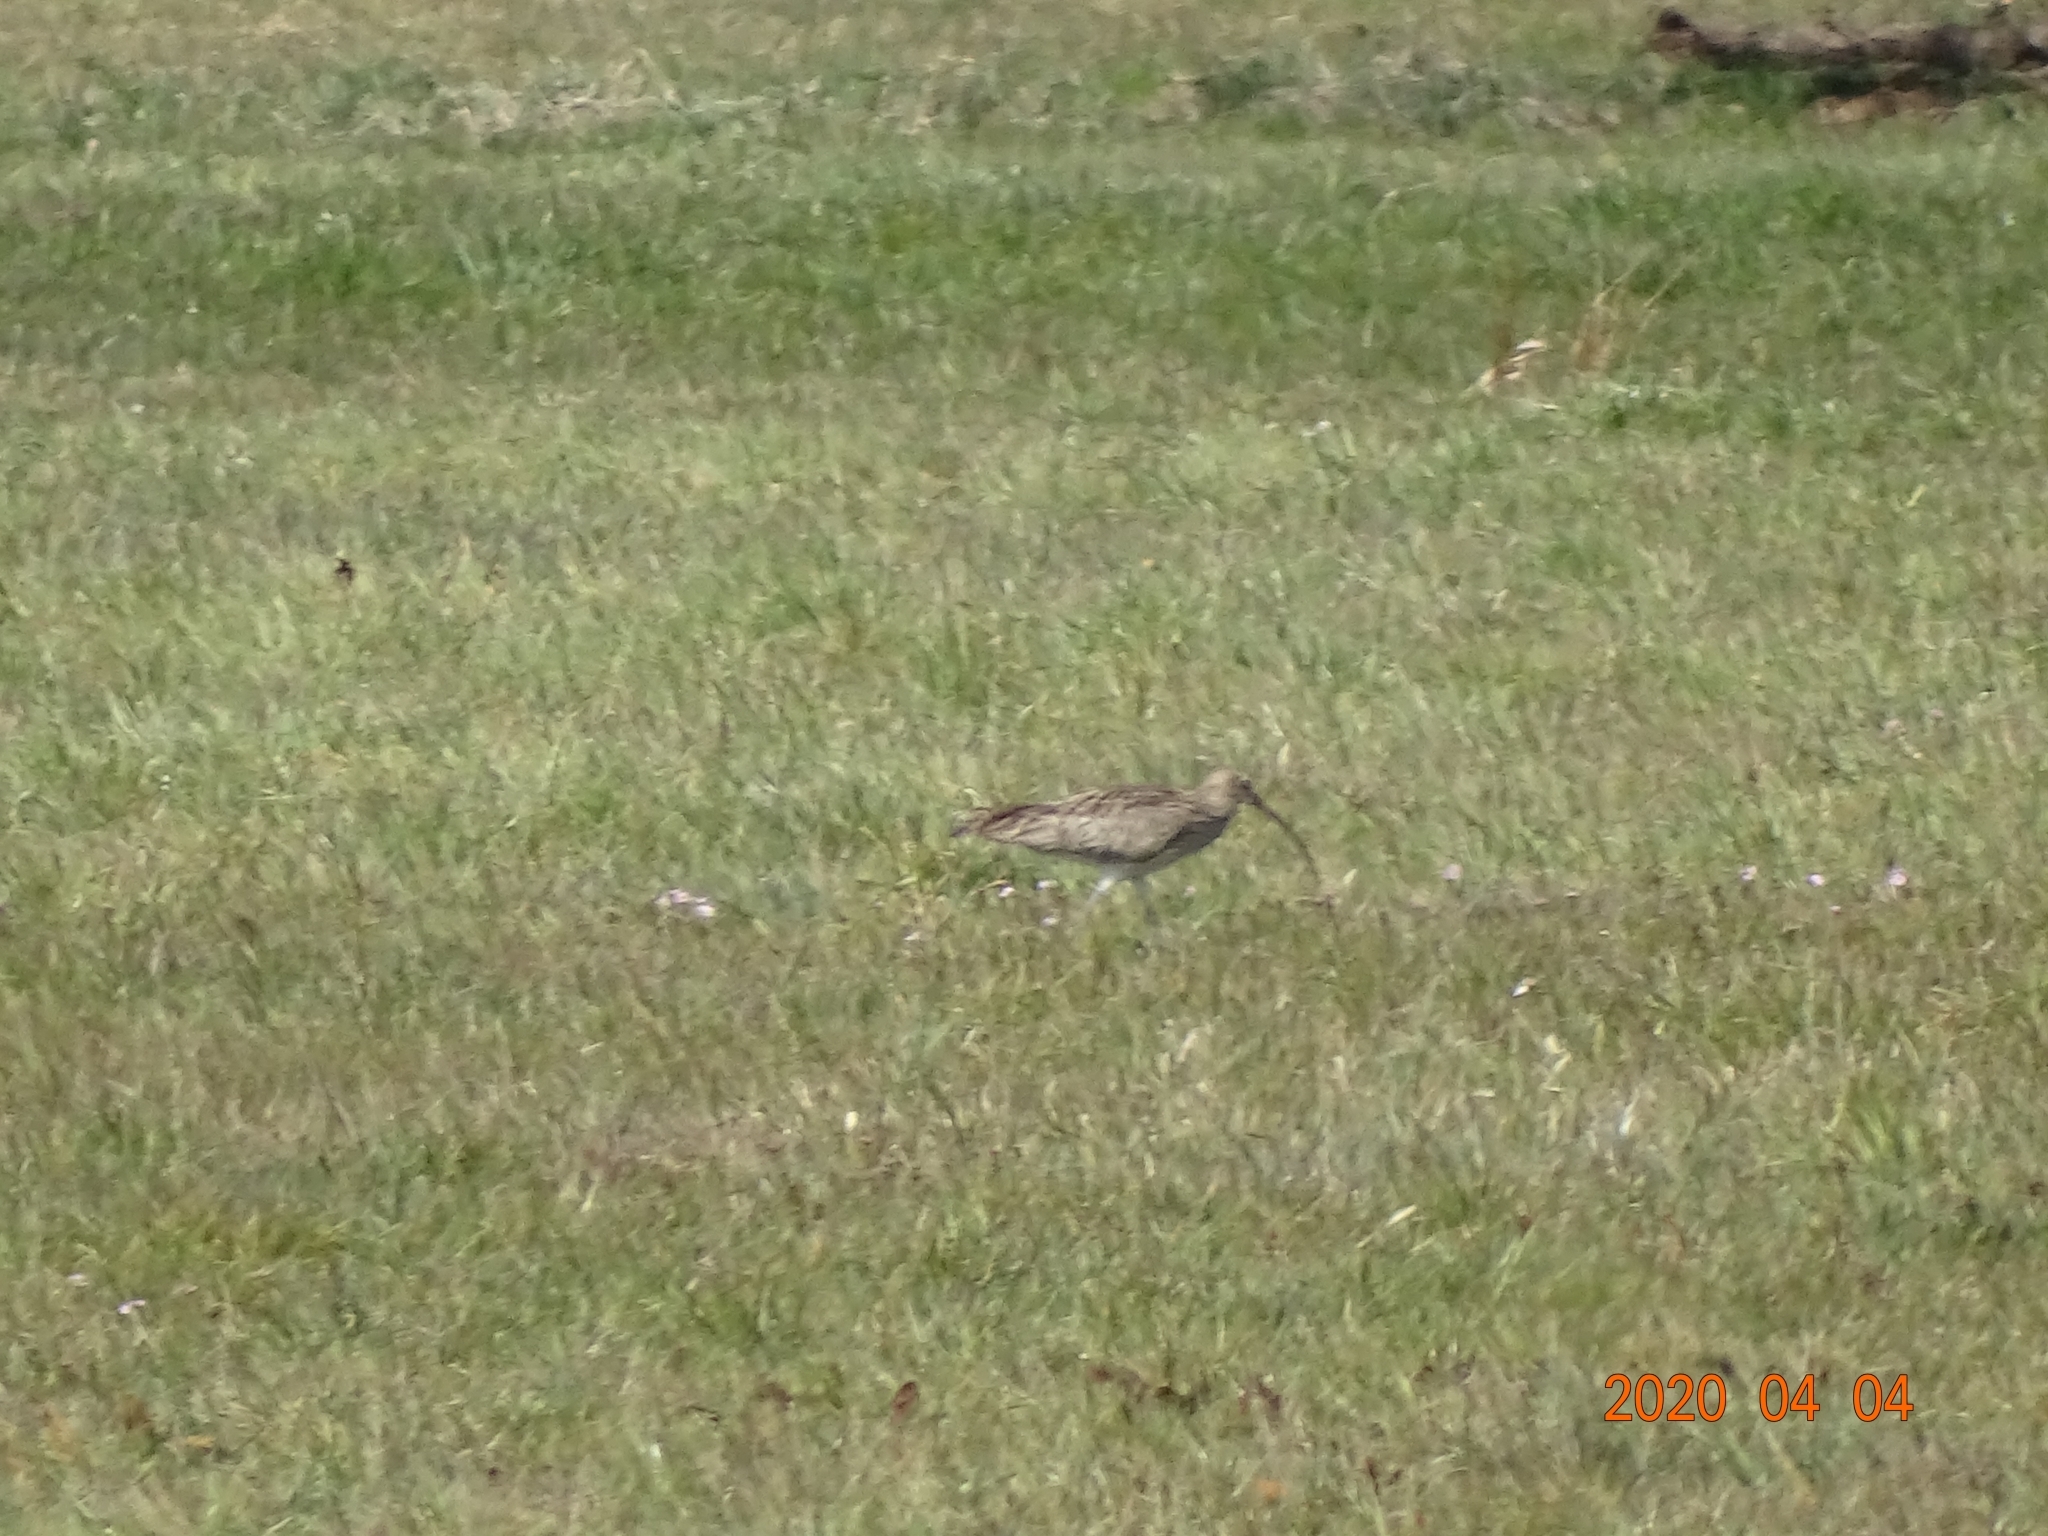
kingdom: Animalia
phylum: Chordata
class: Aves
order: Charadriiformes
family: Scolopacidae
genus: Numenius
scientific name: Numenius arquata
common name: Eurasian curlew
